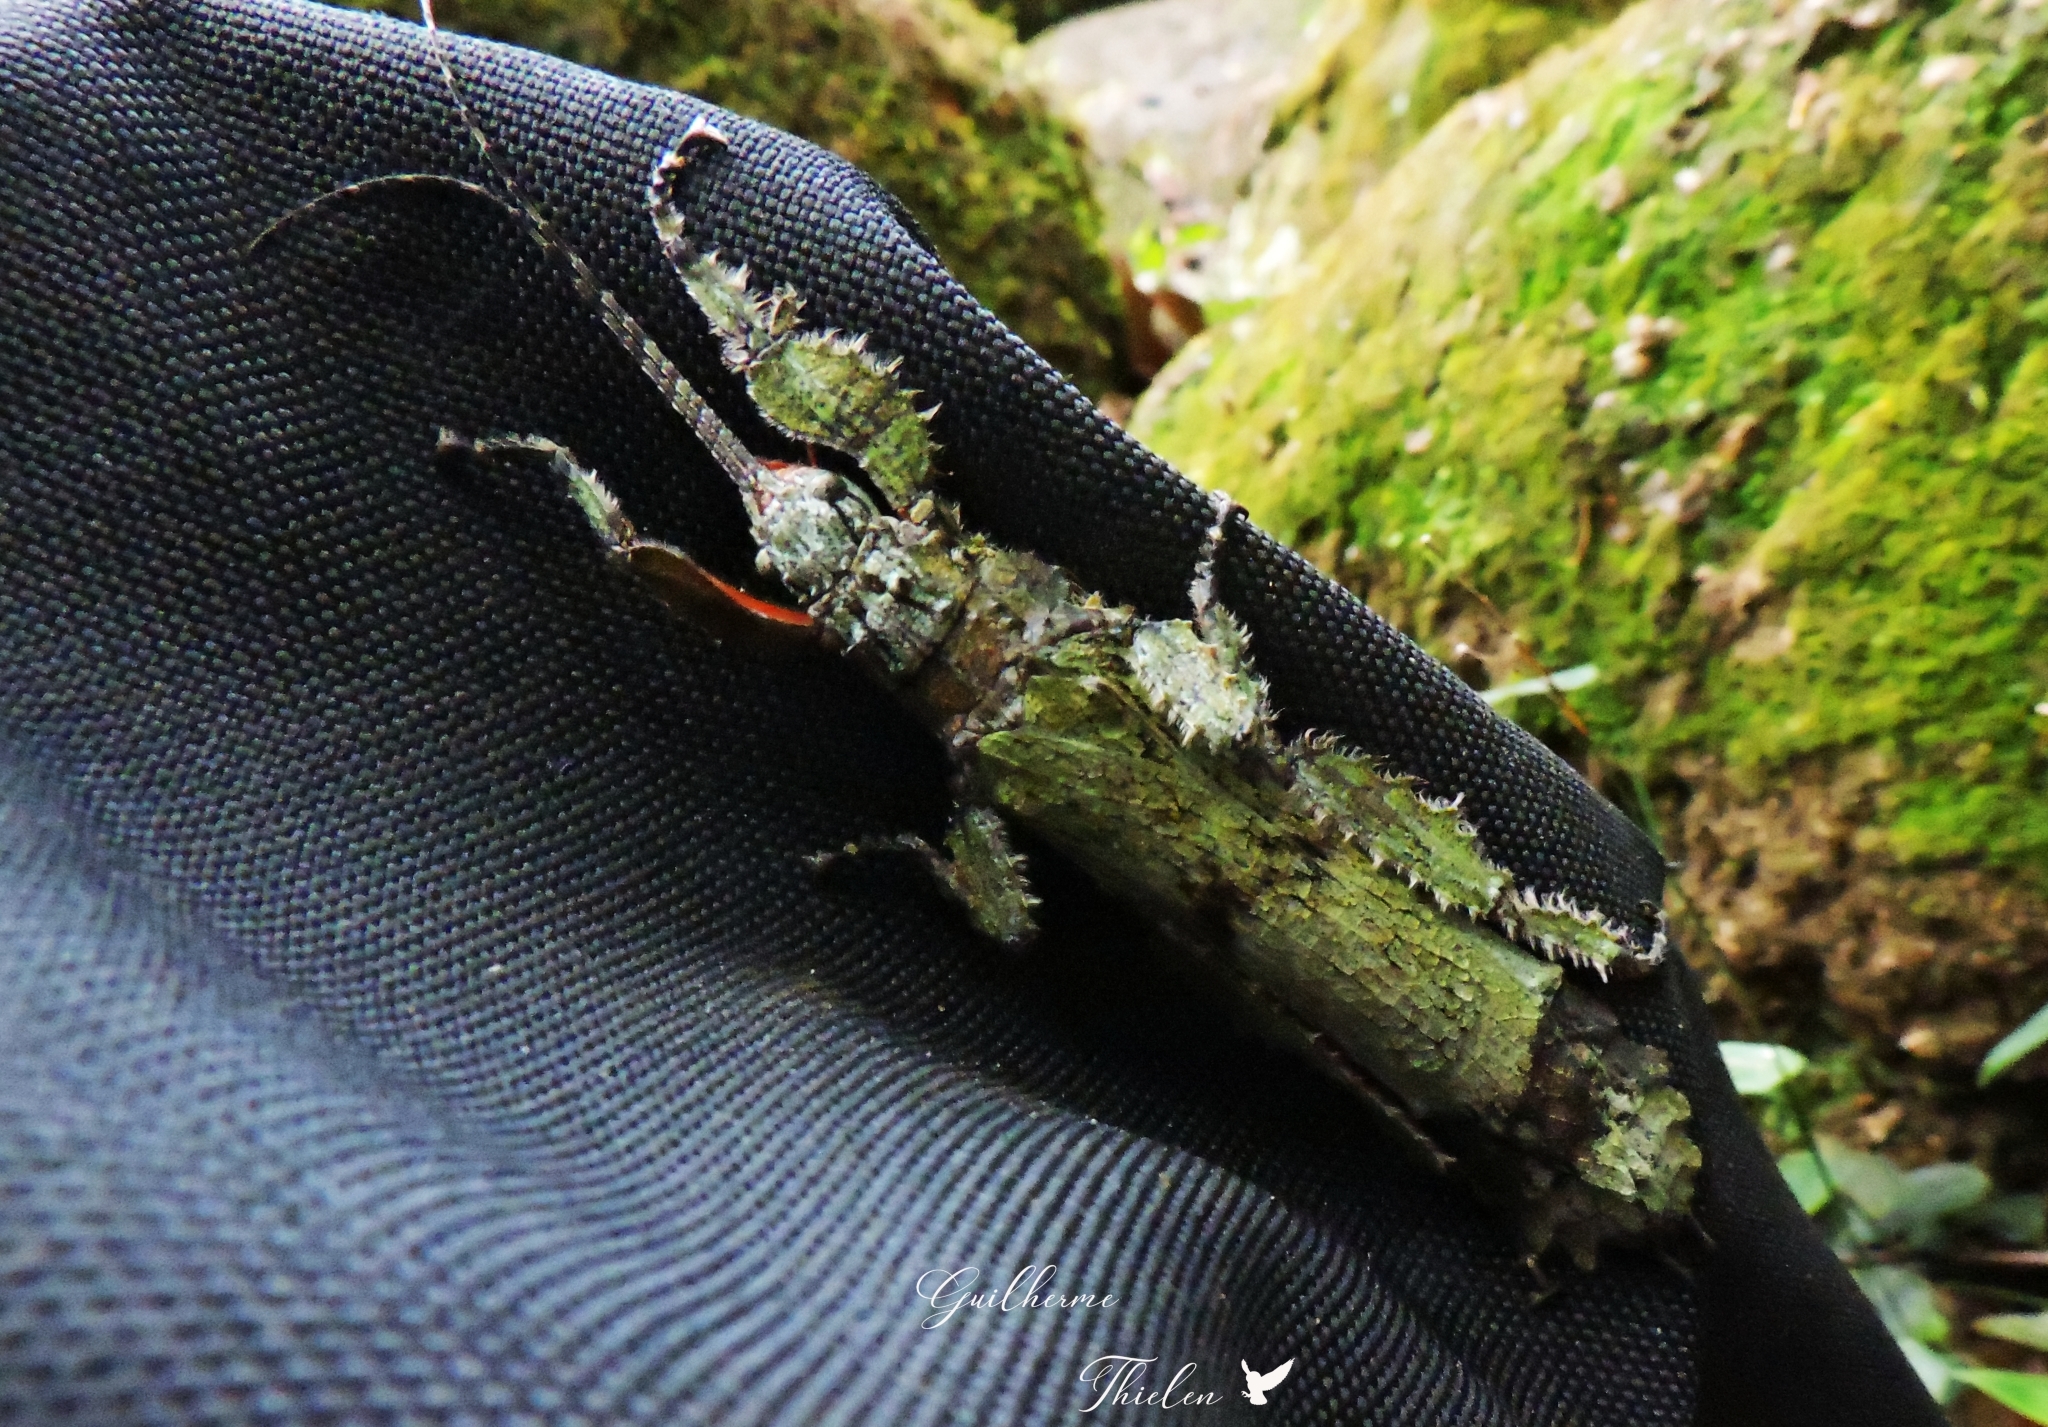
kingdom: Animalia
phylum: Arthropoda
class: Insecta
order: Phasmida
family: Prisopodidae
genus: Prisopus
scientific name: Prisopus sacratus
